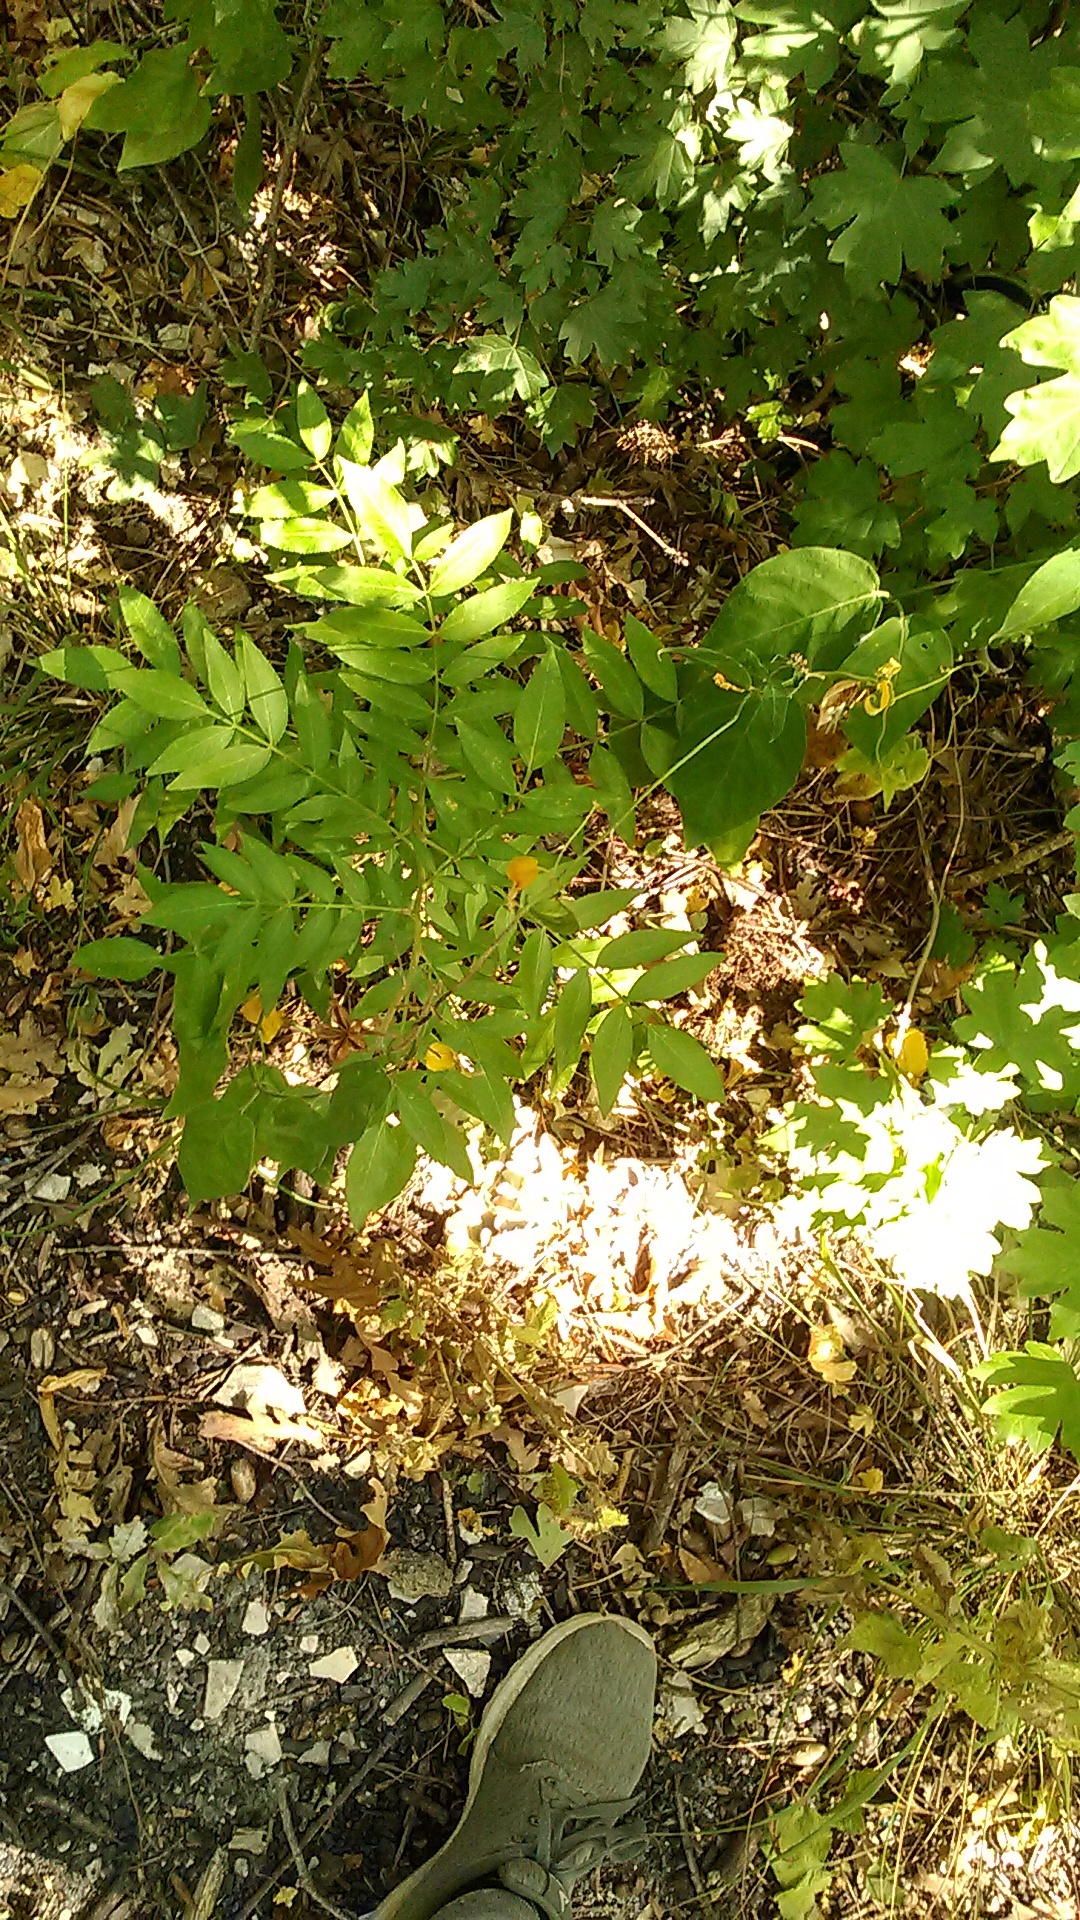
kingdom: Plantae
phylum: Tracheophyta
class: Magnoliopsida
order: Sapindales
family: Rutaceae
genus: Dictamnus
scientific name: Dictamnus albus
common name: Gasplant
